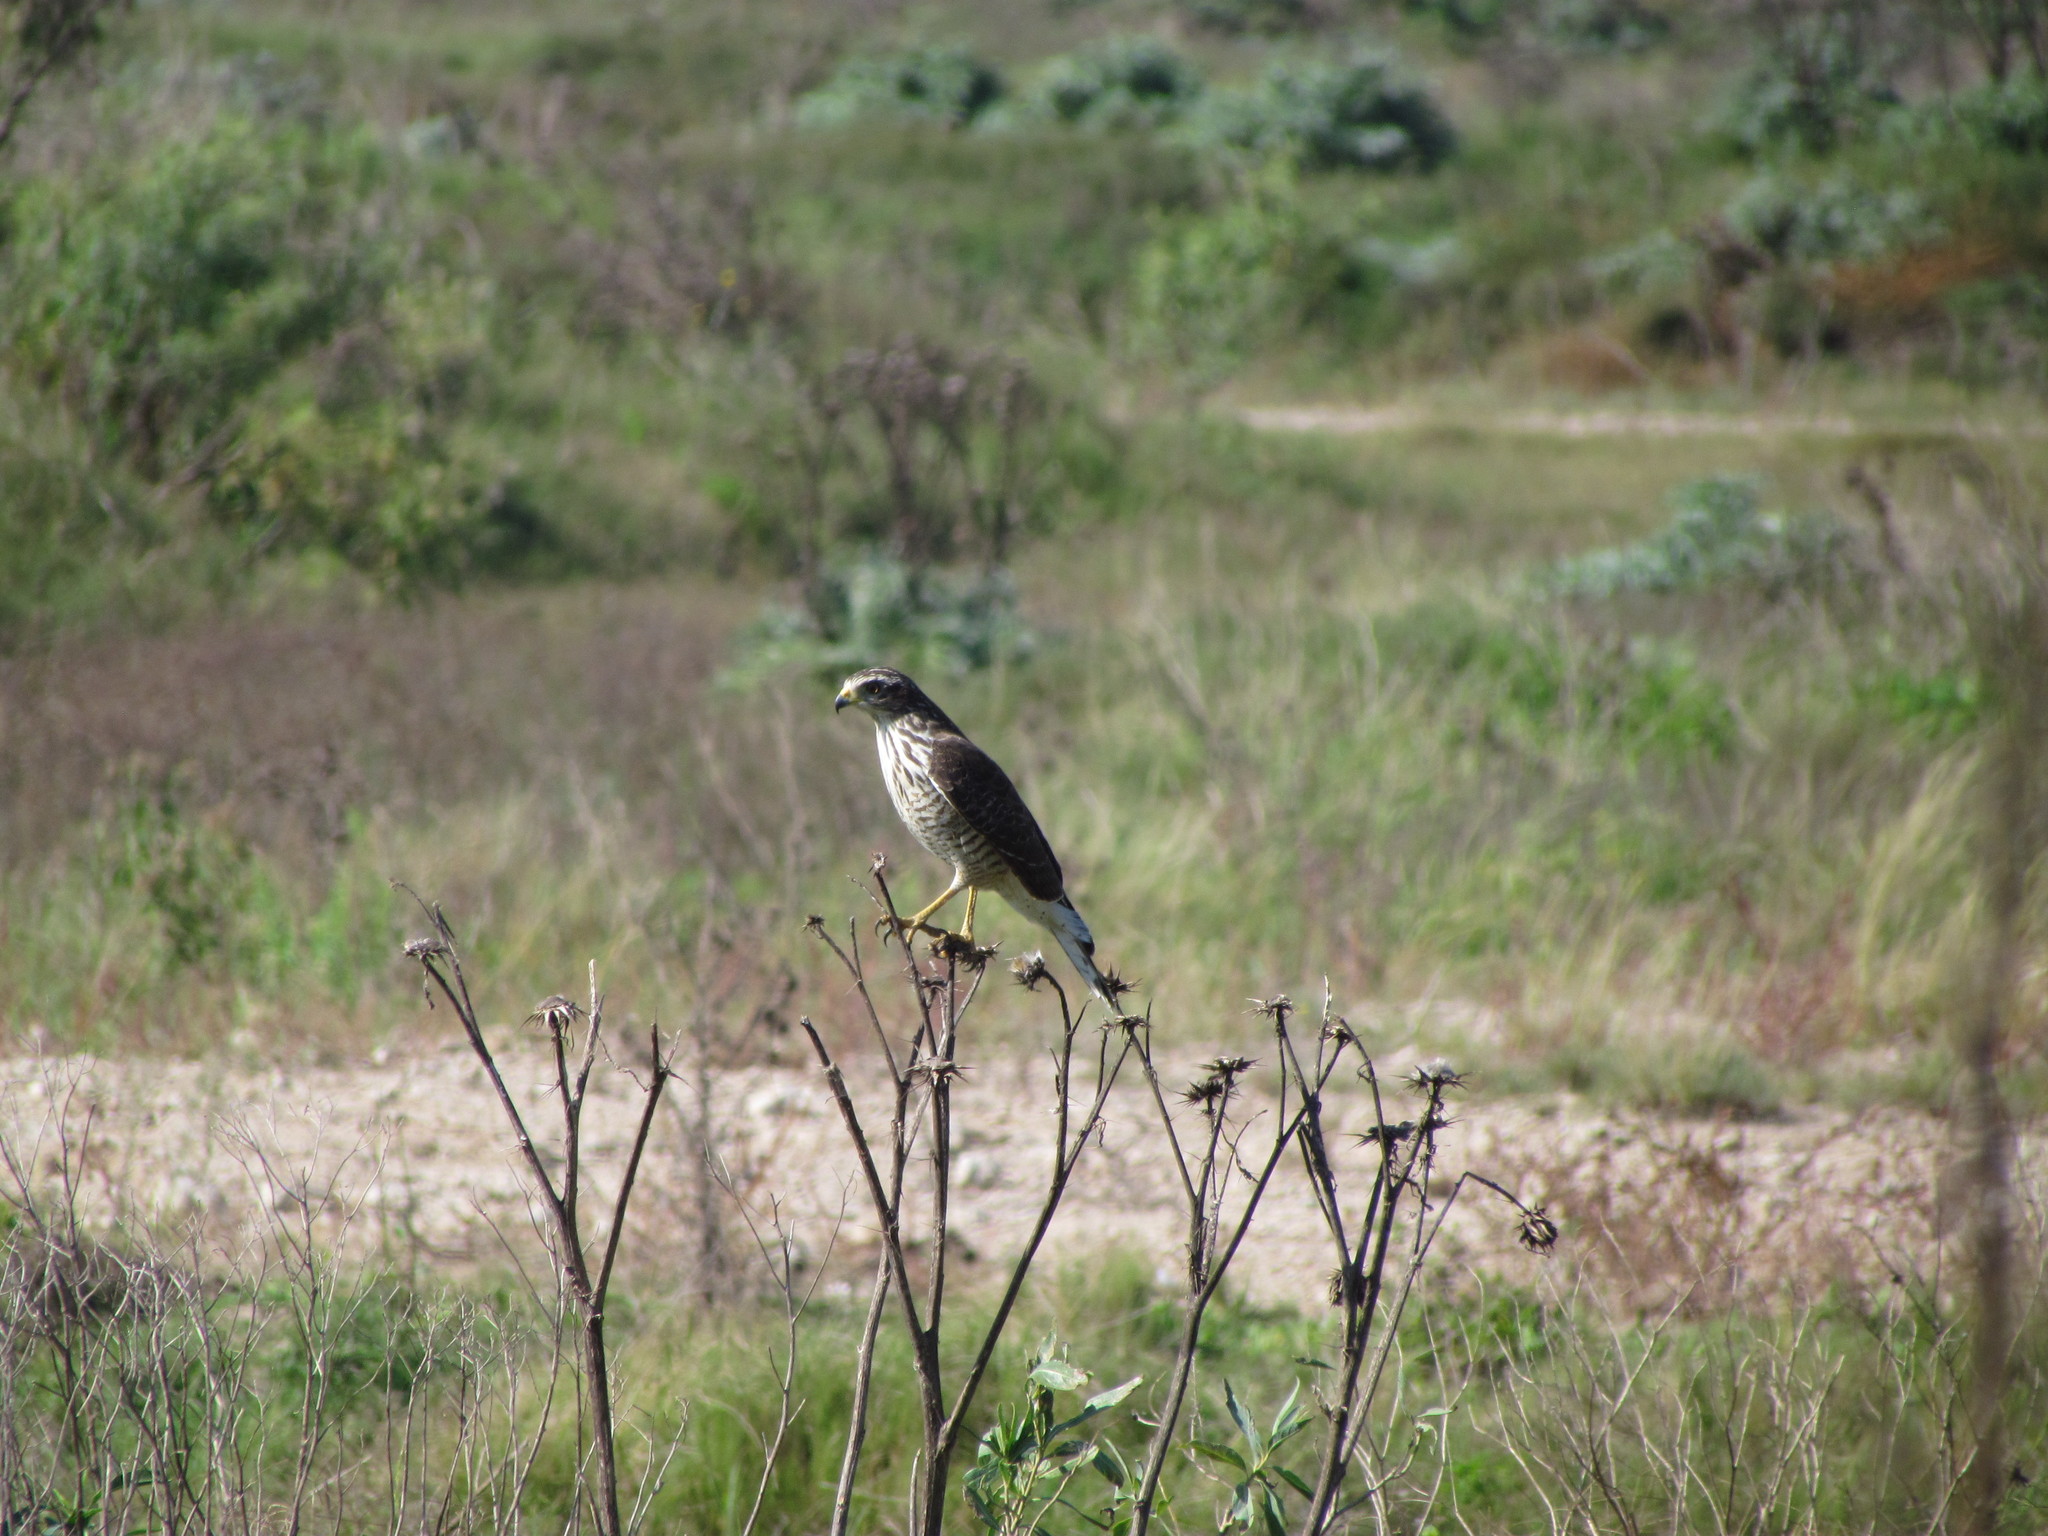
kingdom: Animalia
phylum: Chordata
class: Aves
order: Accipitriformes
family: Accipitridae
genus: Rupornis
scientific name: Rupornis magnirostris
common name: Roadside hawk
